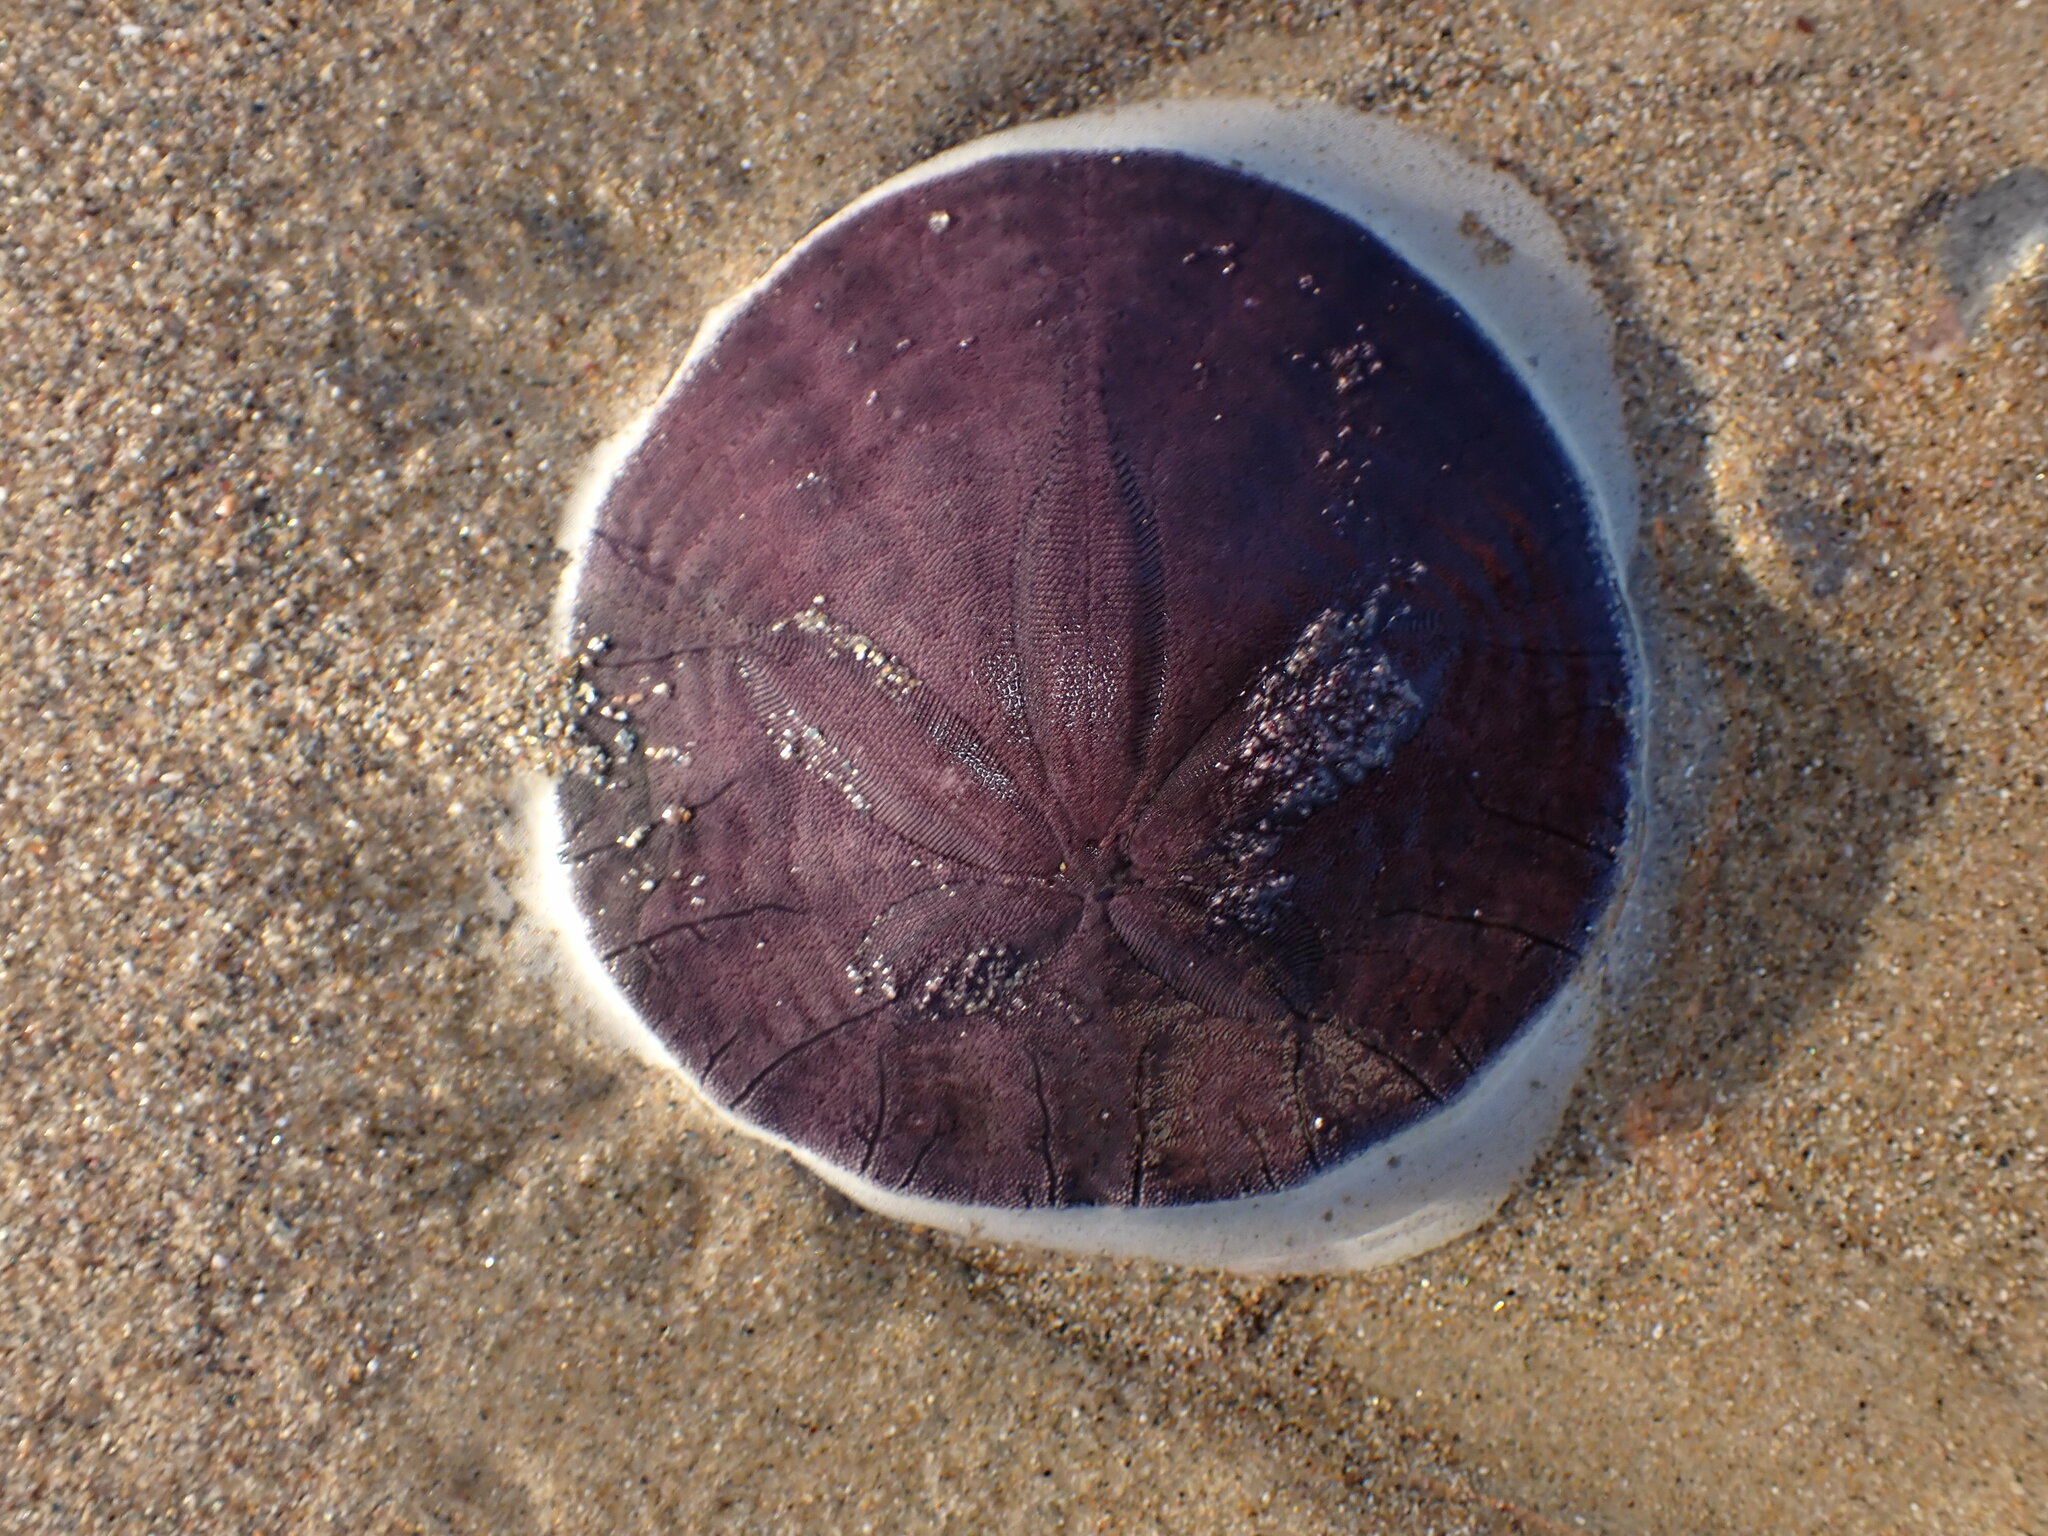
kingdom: Animalia
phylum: Echinodermata
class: Echinoidea
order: Echinolampadacea
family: Dendrasteridae
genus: Dendraster
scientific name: Dendraster excentricus
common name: Eccentric sand dollar sea urchin
